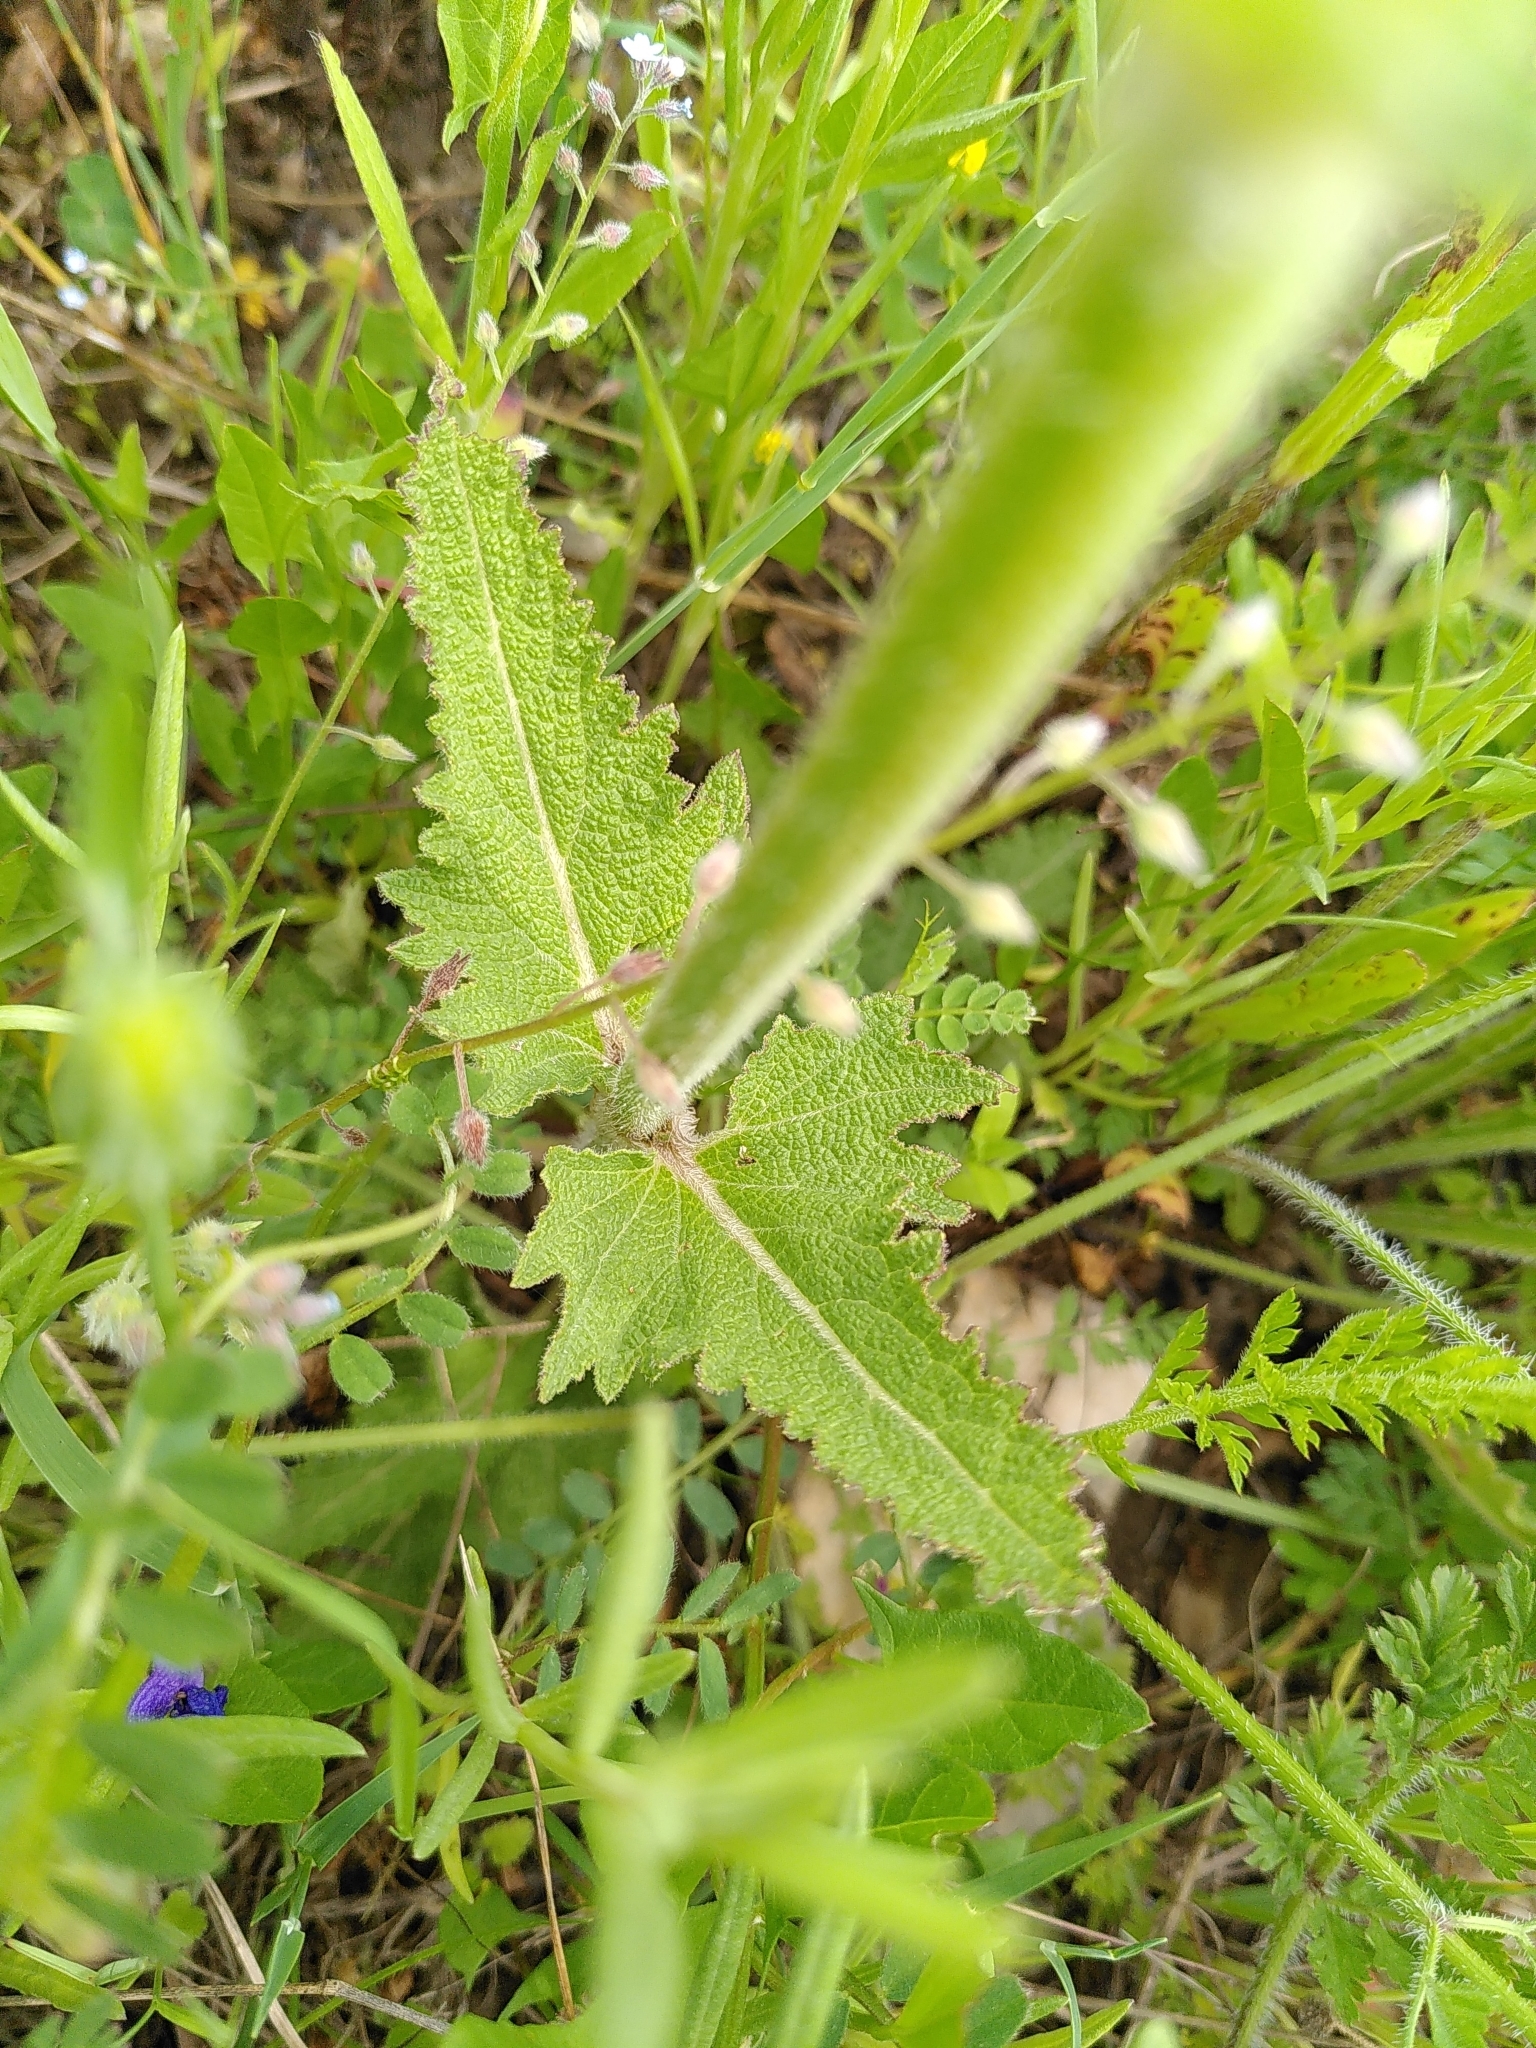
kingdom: Plantae
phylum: Tracheophyta
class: Magnoliopsida
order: Lamiales
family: Lamiaceae
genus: Salvia
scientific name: Salvia pratensis
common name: Meadow sage
